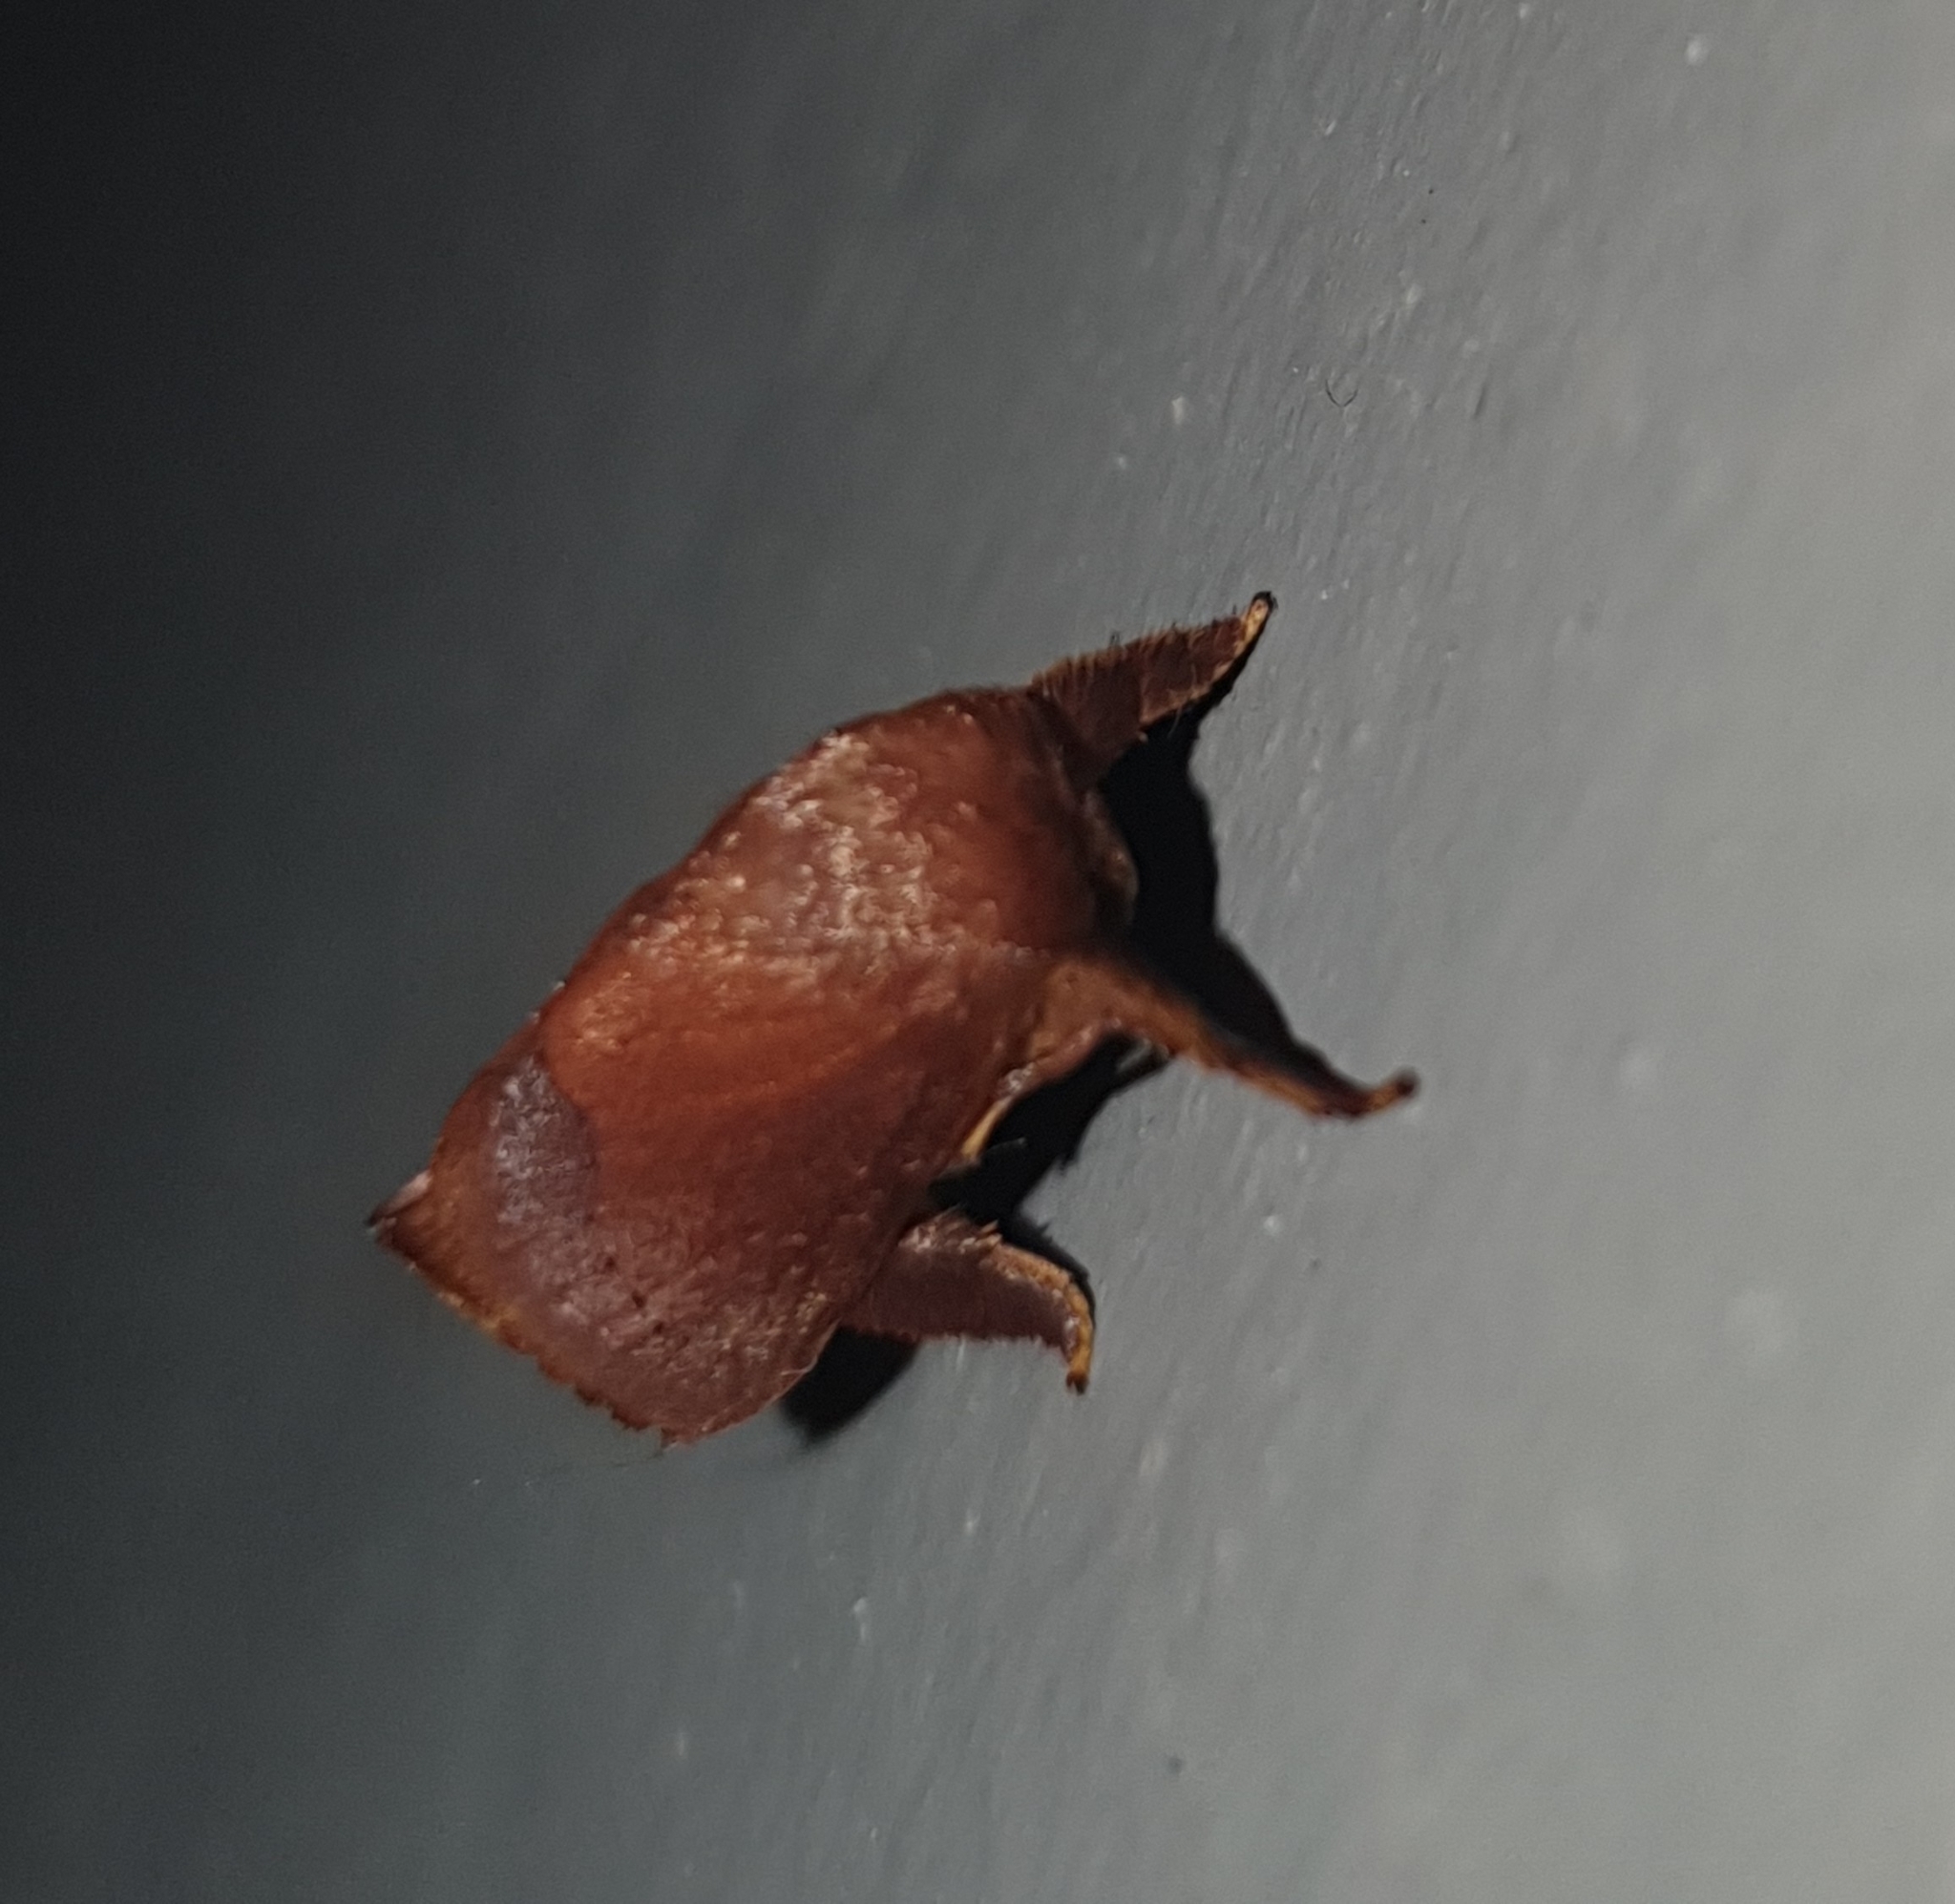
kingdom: Animalia
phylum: Arthropoda
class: Insecta
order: Lepidoptera
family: Limacodidae
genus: Talima
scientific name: Talima
